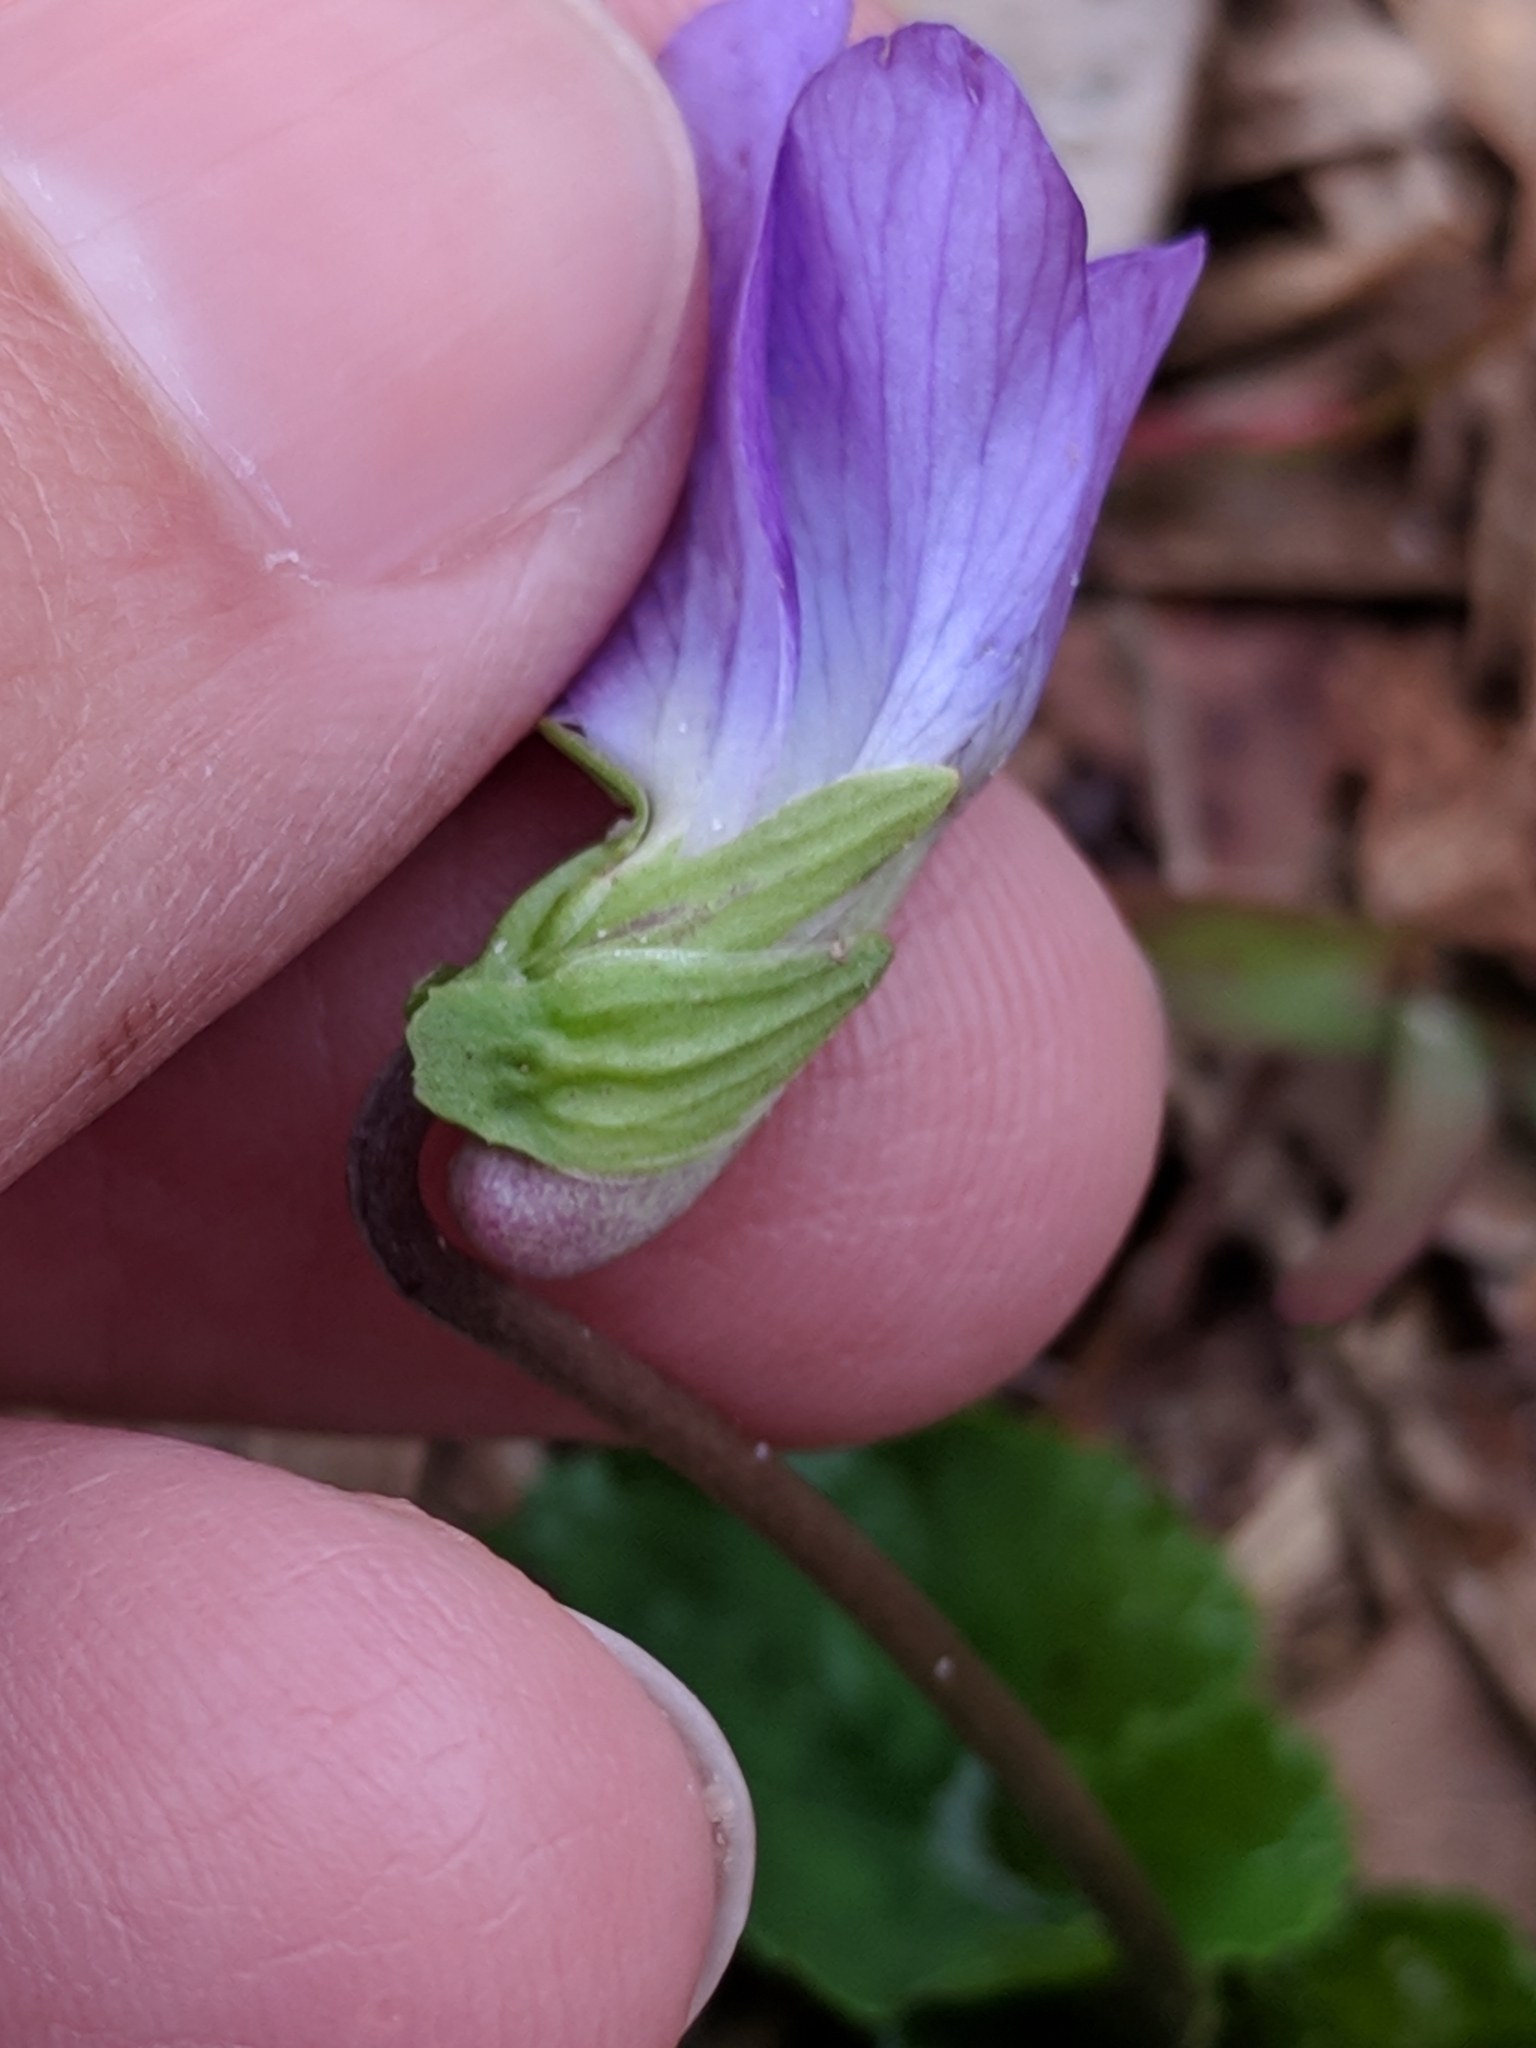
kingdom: Plantae
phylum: Tracheophyta
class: Magnoliopsida
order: Malpighiales
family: Violaceae
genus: Viola
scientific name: Viola sororia
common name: Dooryard violet
